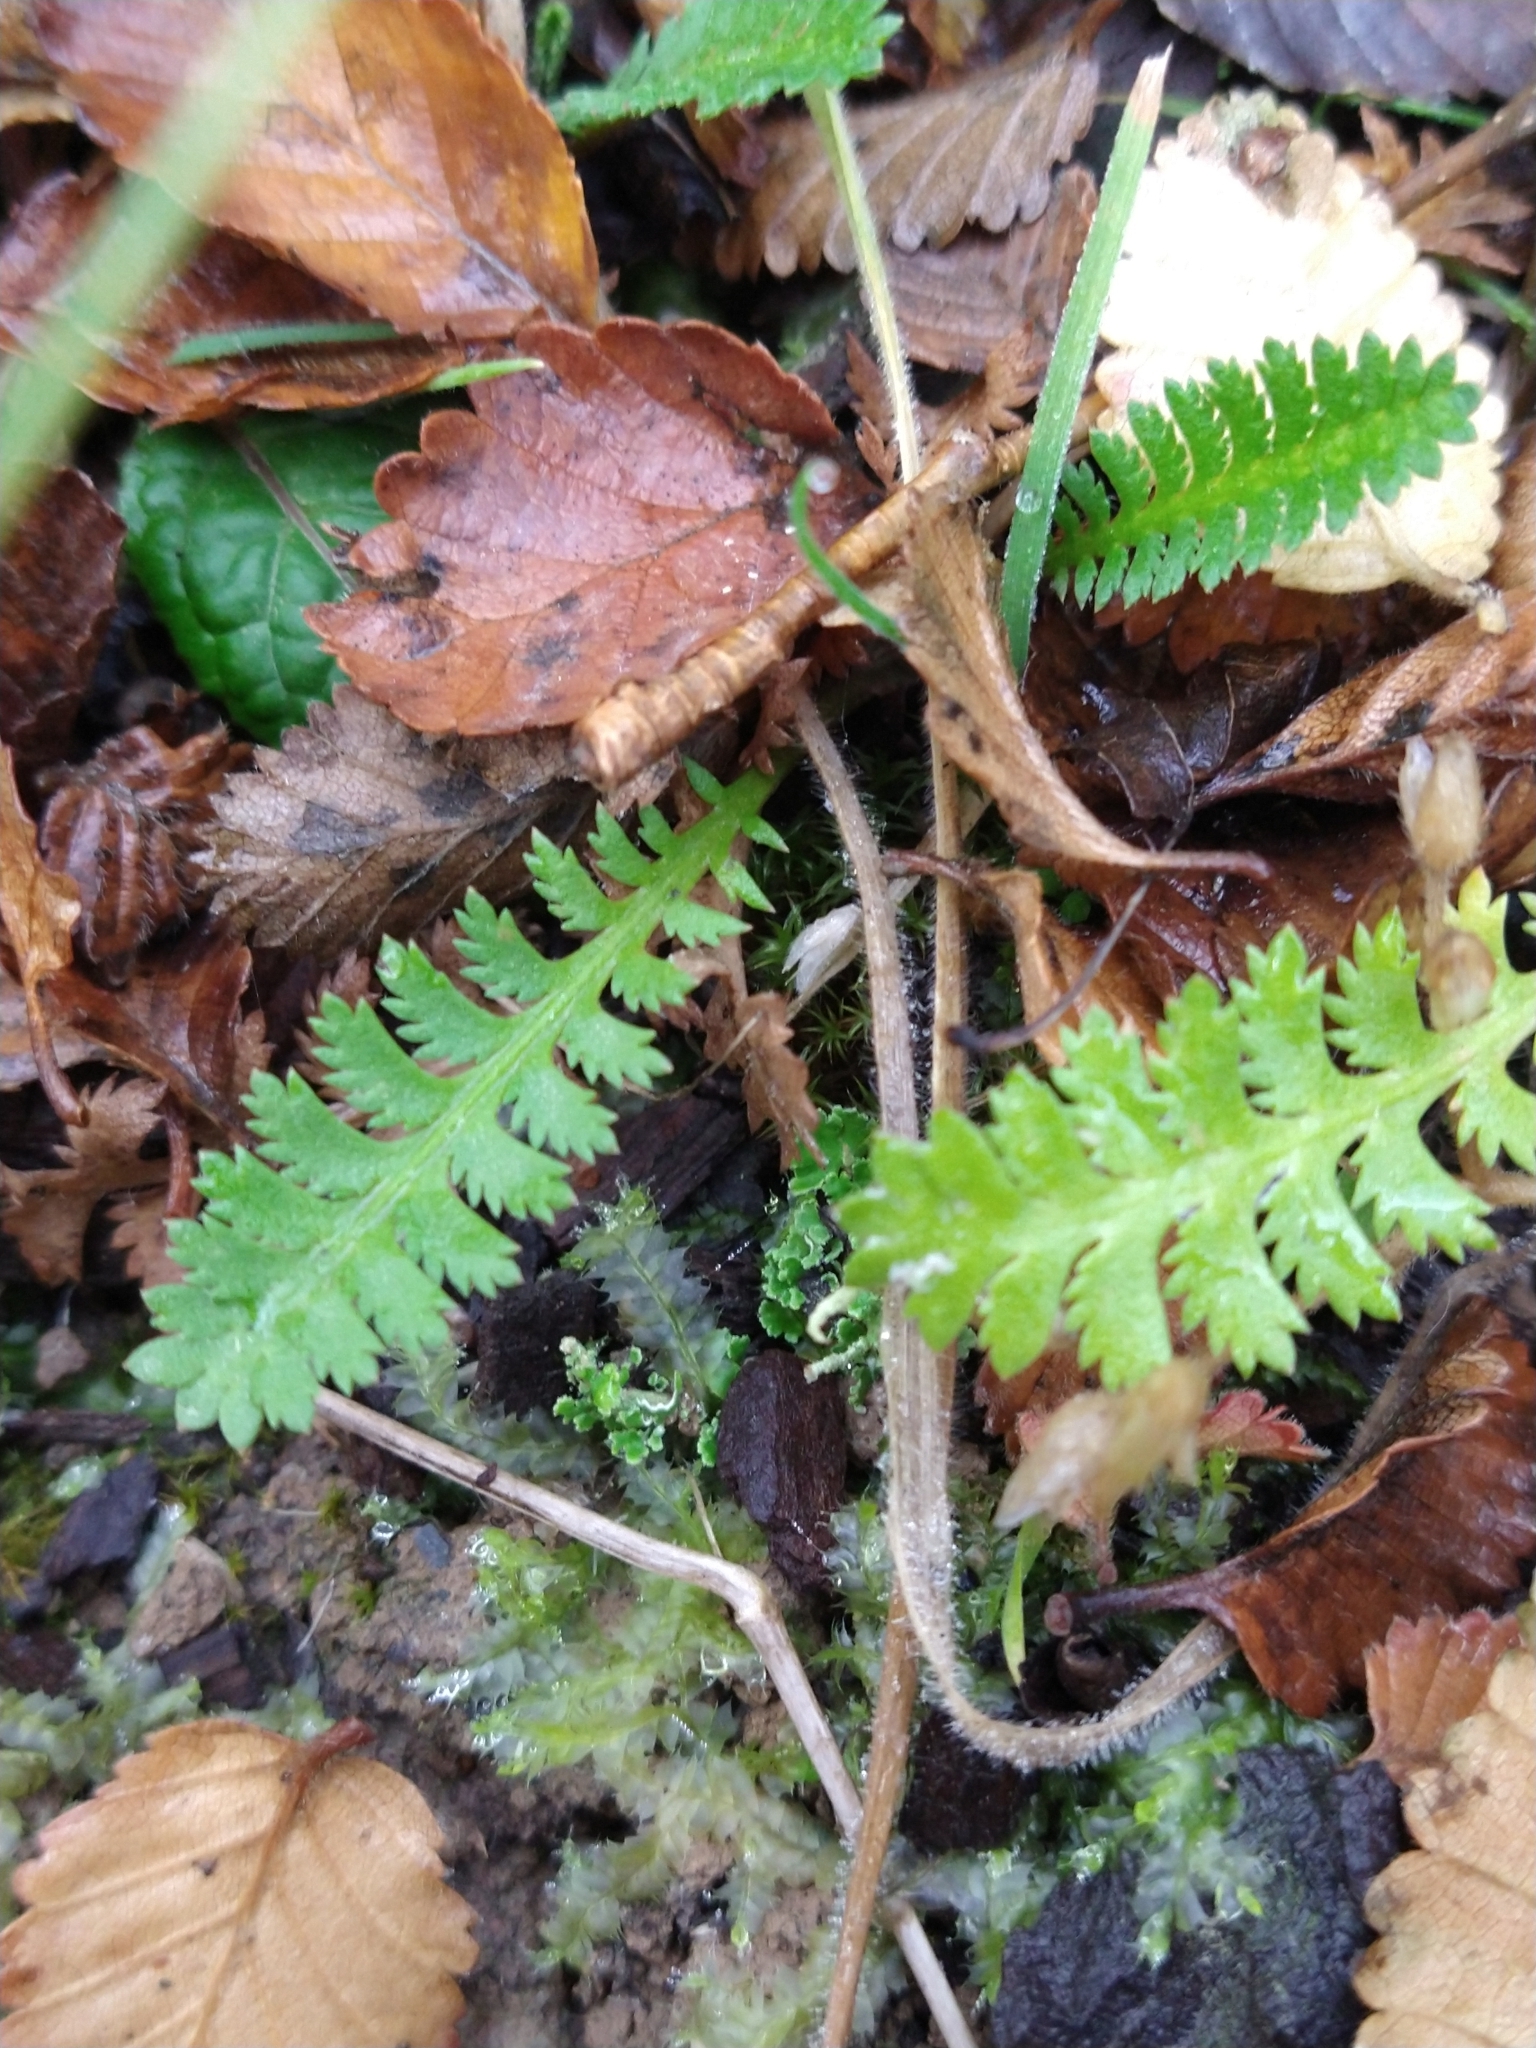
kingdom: Plantae
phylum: Tracheophyta
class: Magnoliopsida
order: Asterales
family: Asteraceae
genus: Leptinella
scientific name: Leptinella scariosa
